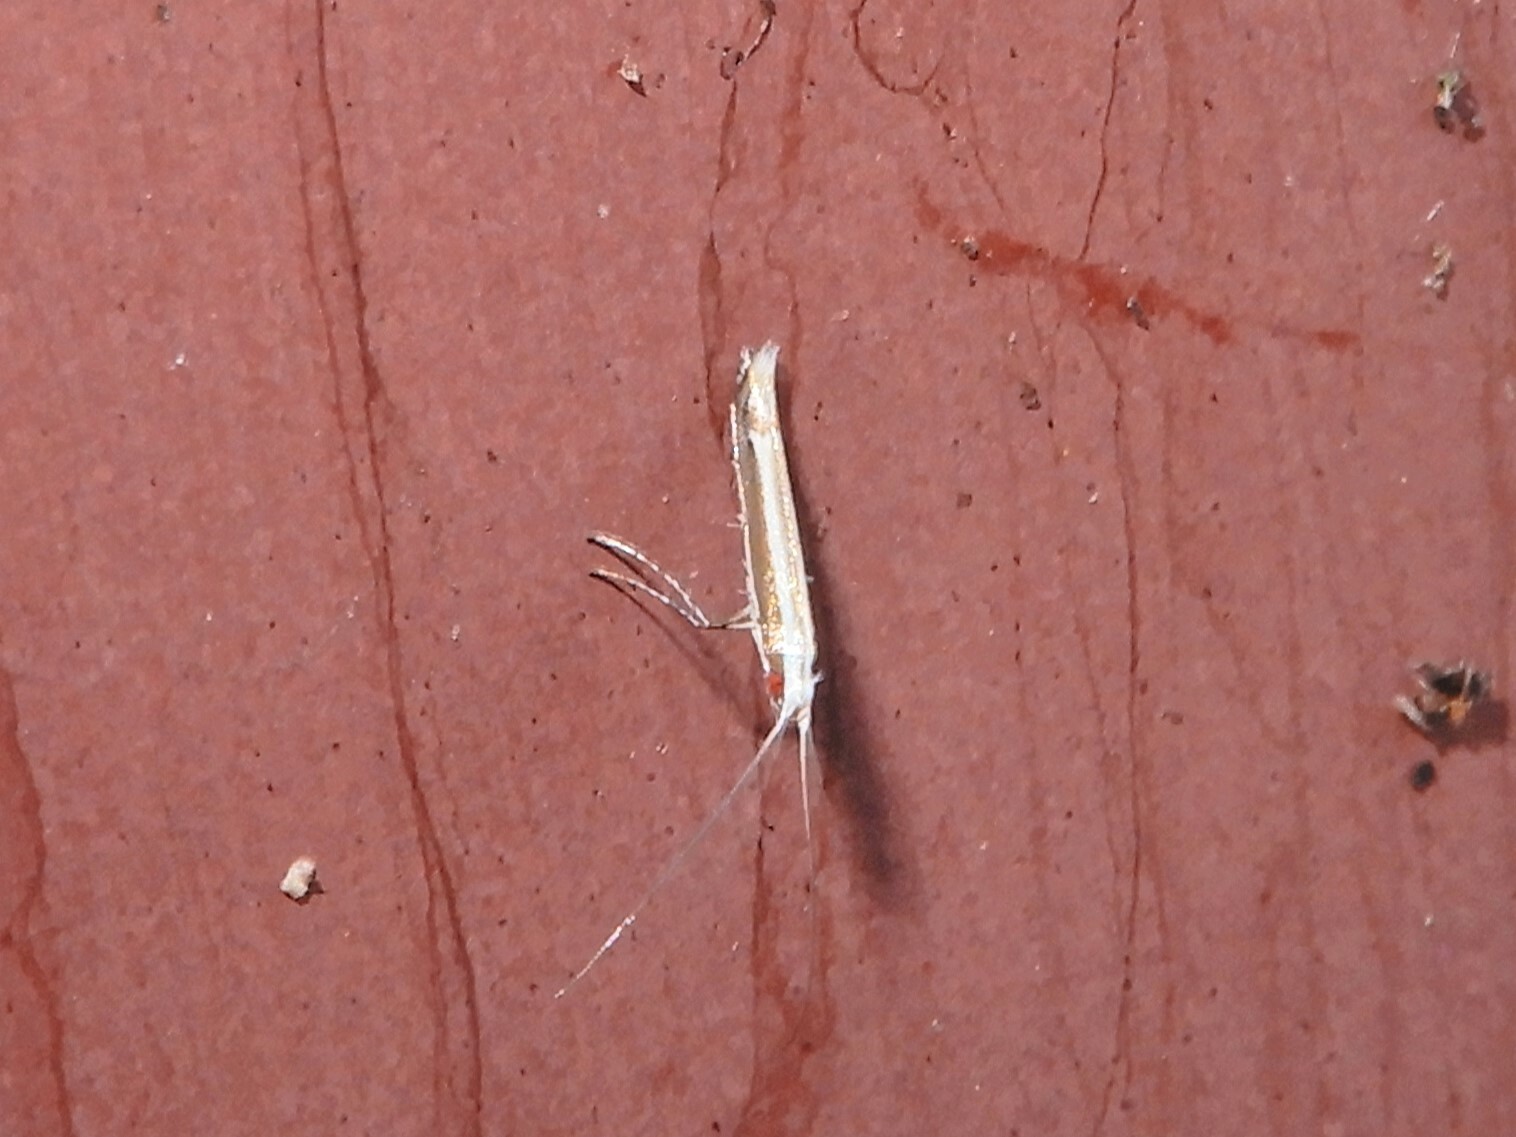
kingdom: Animalia
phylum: Arthropoda
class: Insecta
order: Lepidoptera
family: Gracillariidae
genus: Acrocercops
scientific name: Acrocercops laciniella
